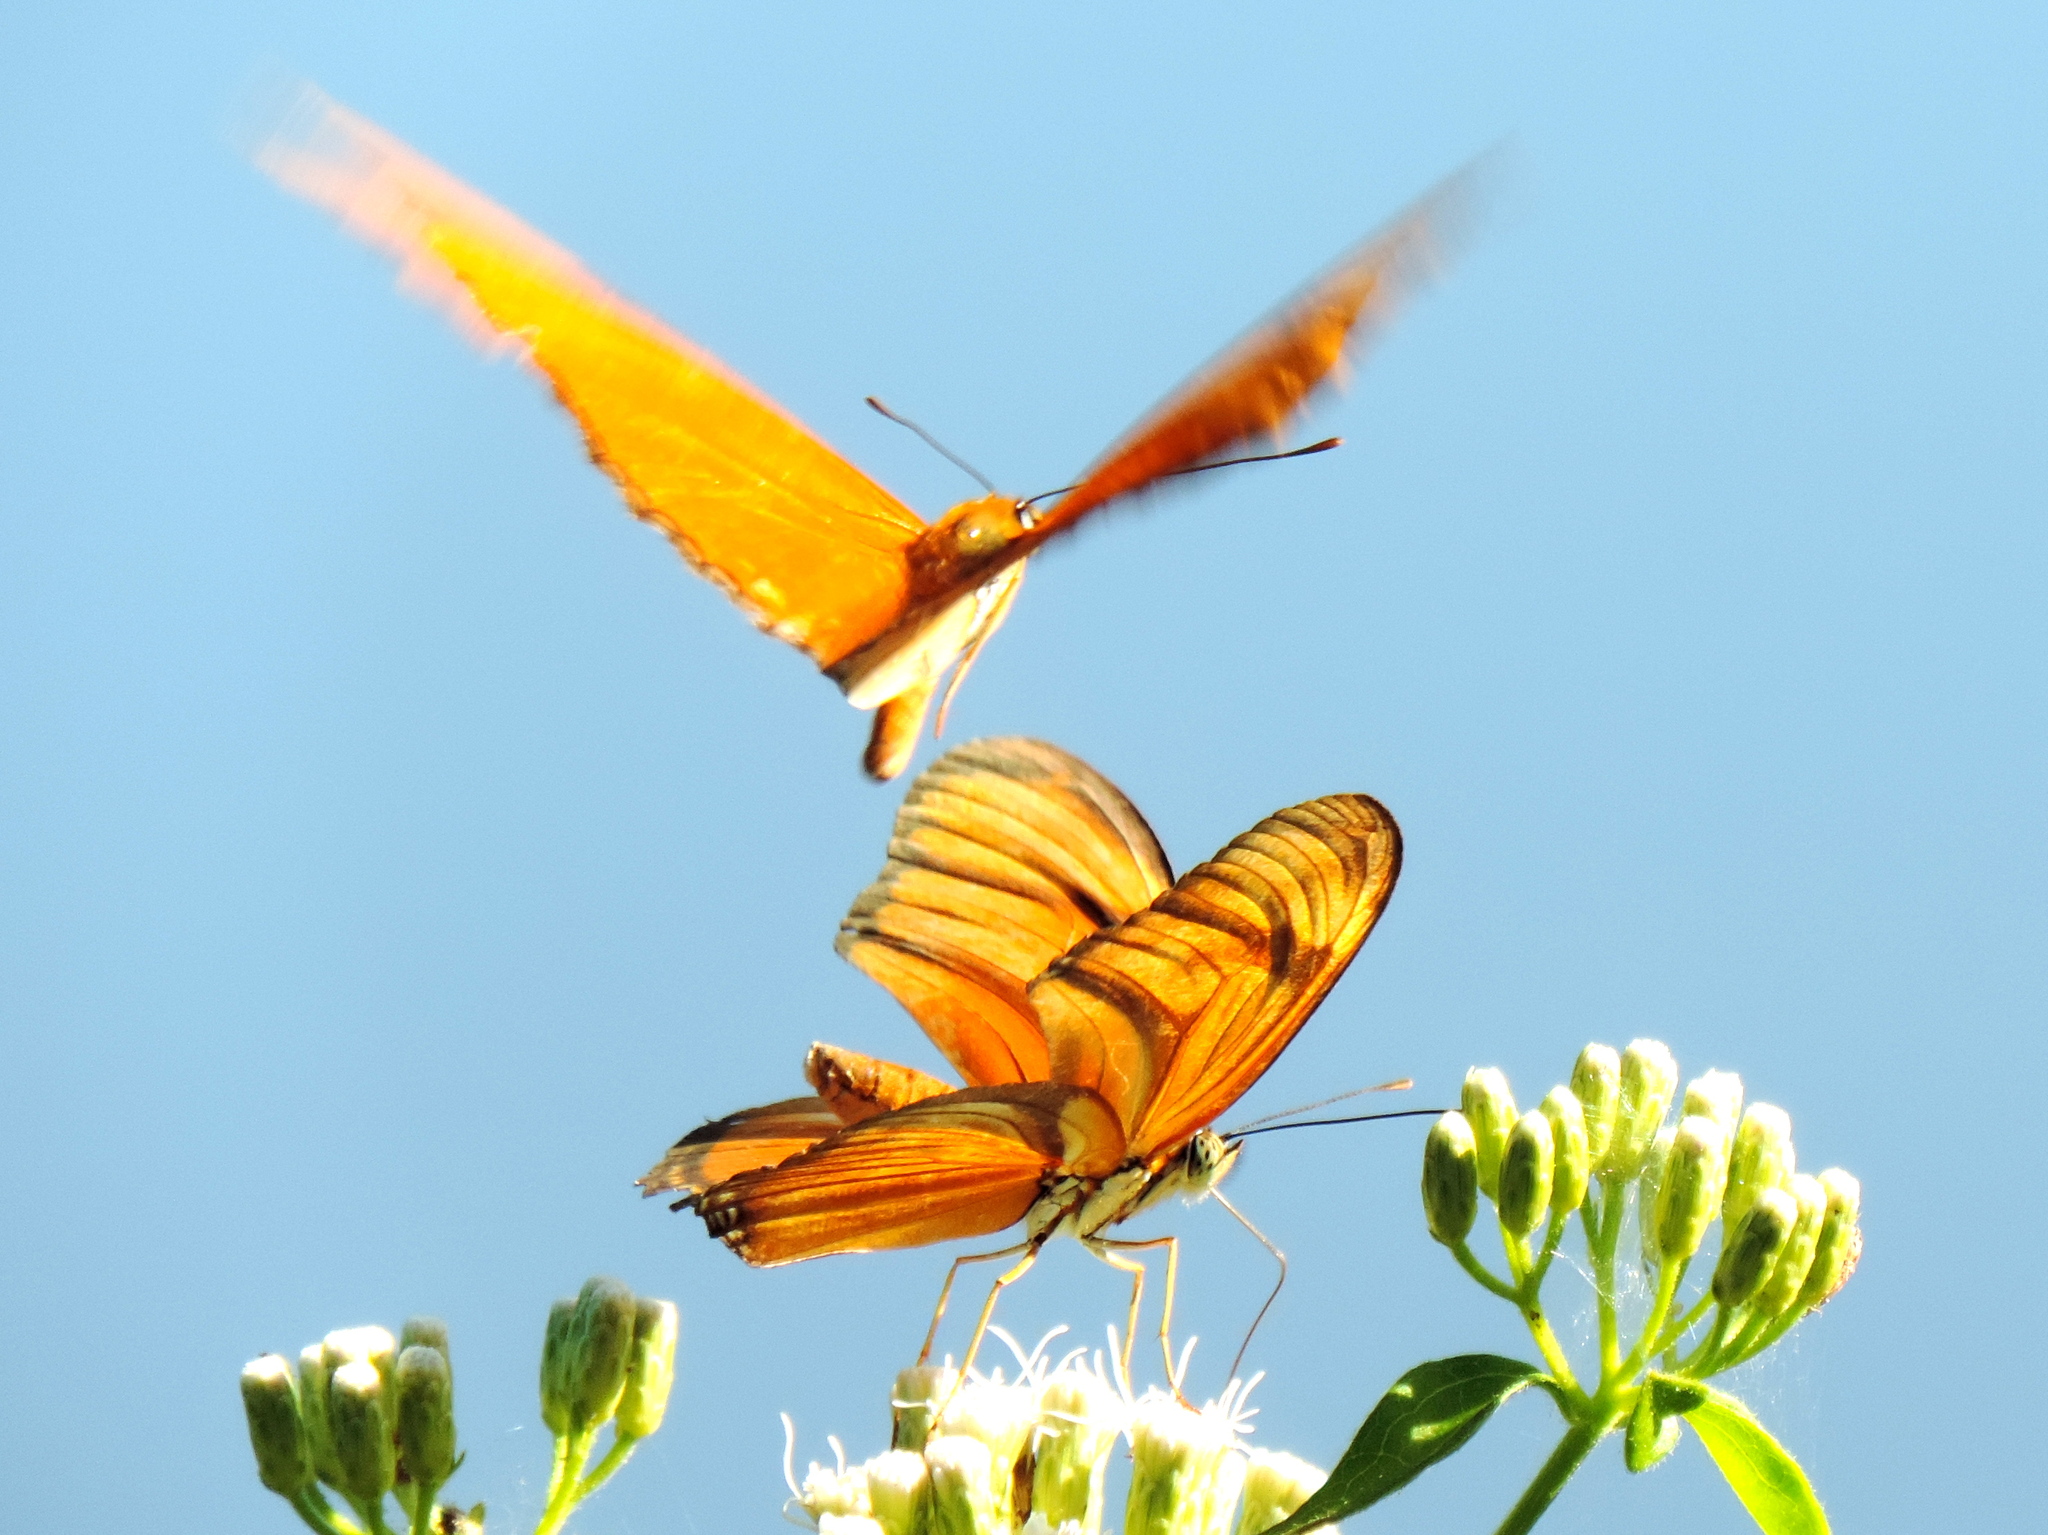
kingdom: Animalia
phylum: Arthropoda
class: Insecta
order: Lepidoptera
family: Nymphalidae
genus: Dryas
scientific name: Dryas iulia
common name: Flambeau
